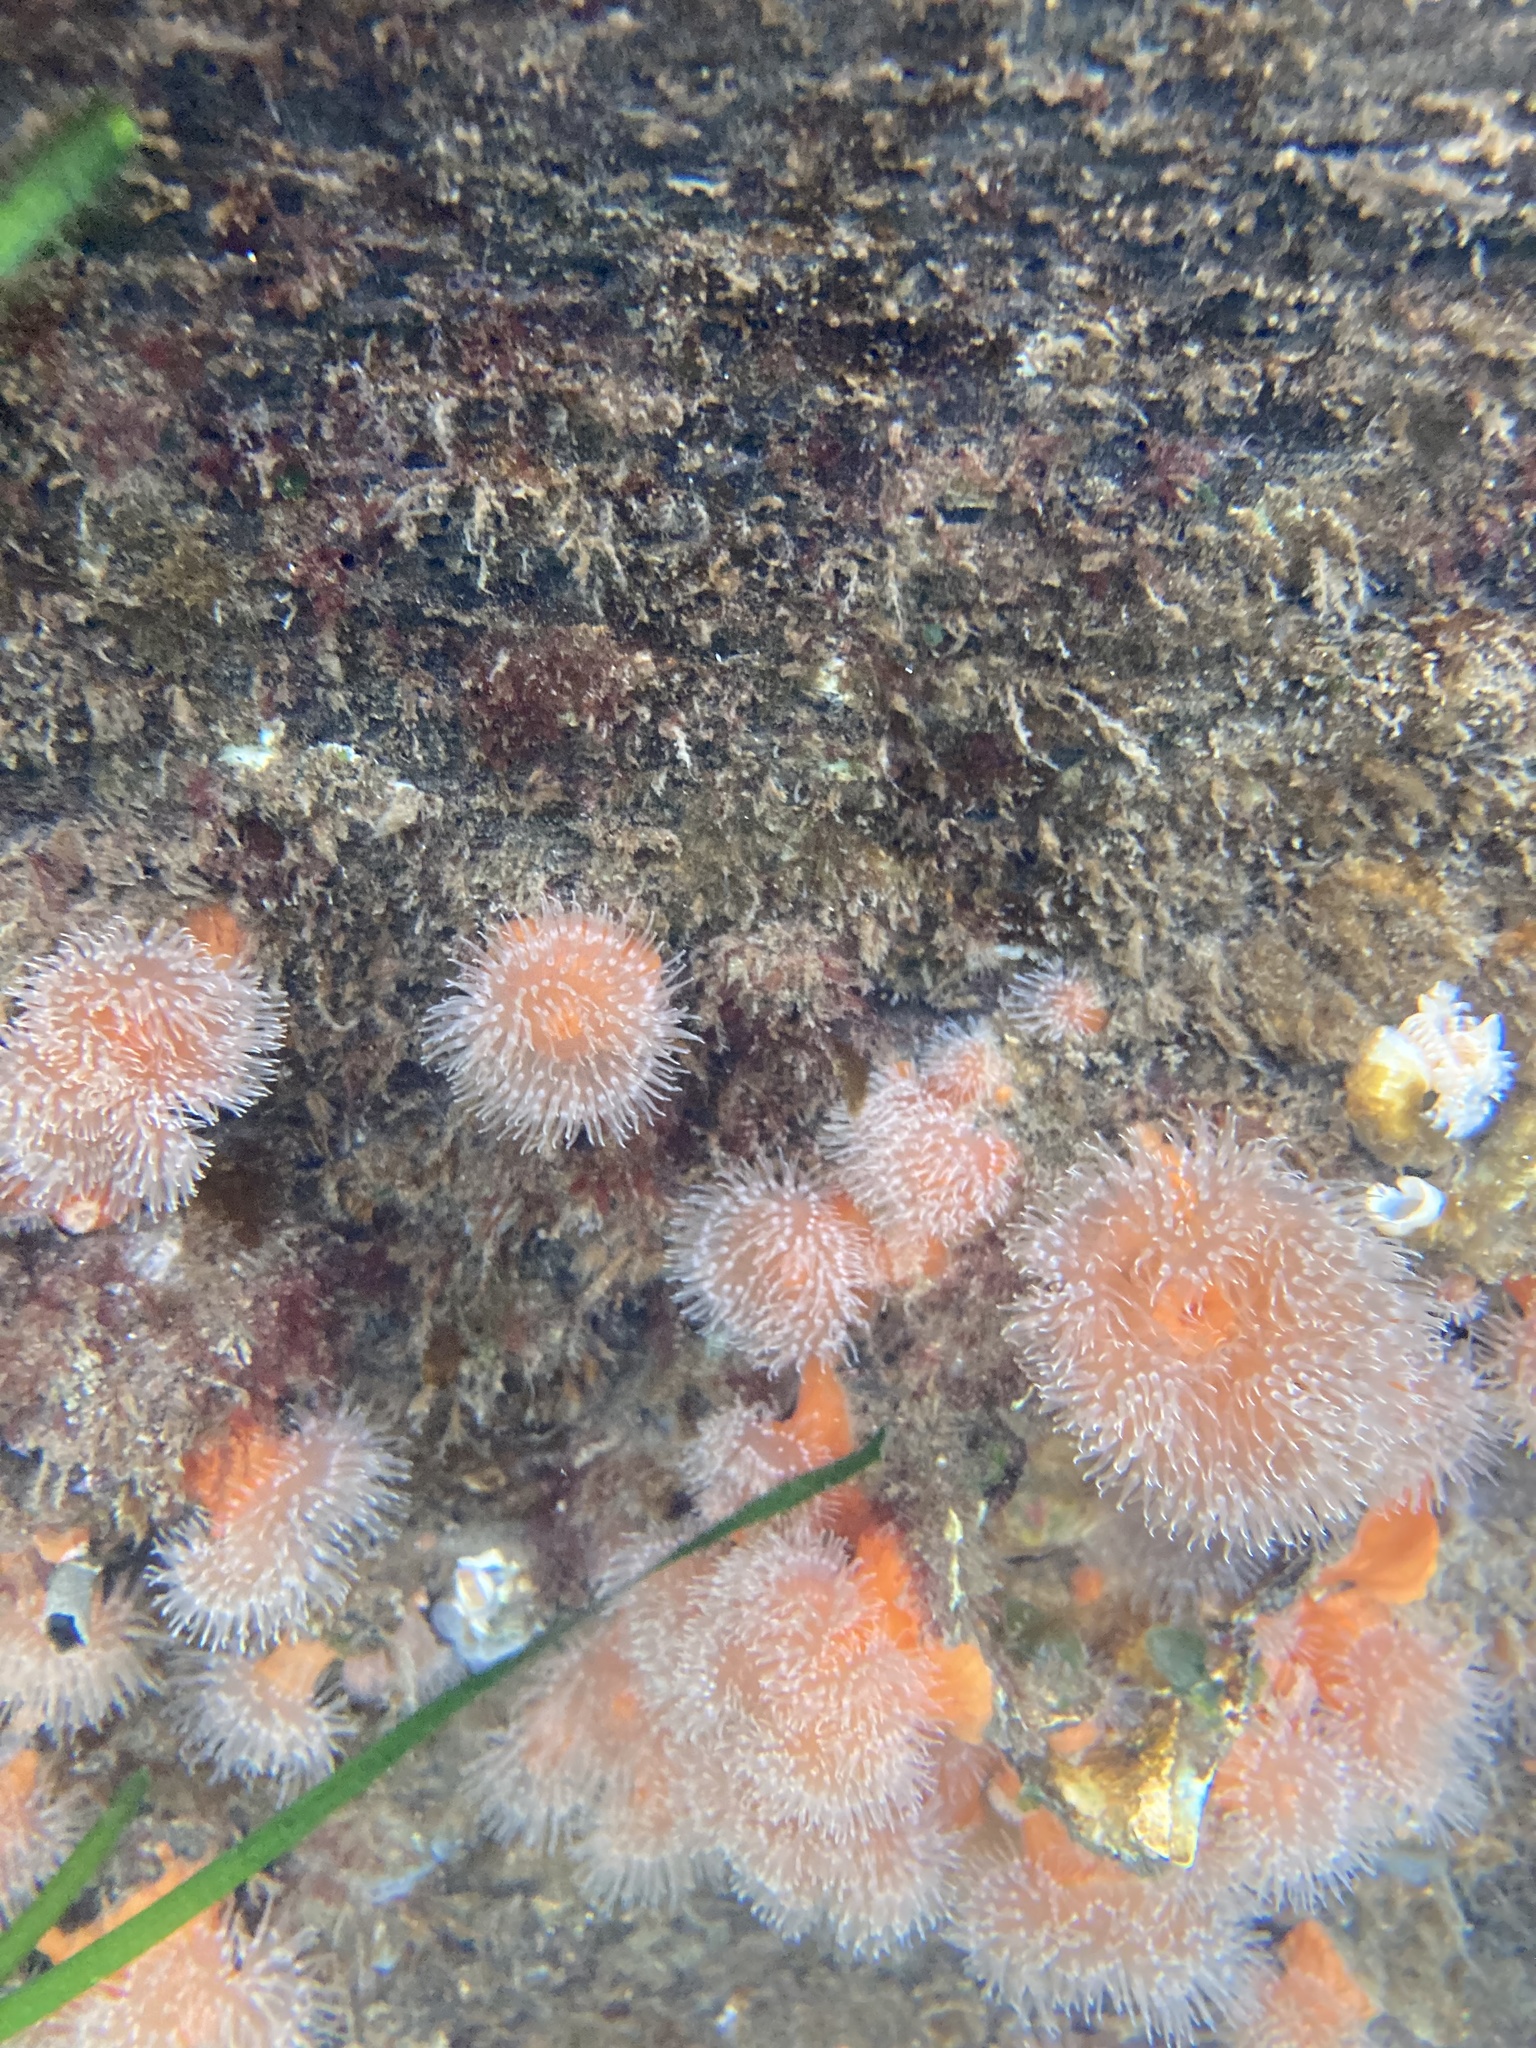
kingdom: Animalia
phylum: Cnidaria
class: Anthozoa
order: Actiniaria
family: Metridiidae
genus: Metridium
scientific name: Metridium senile
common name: Clonal plumose anemone
